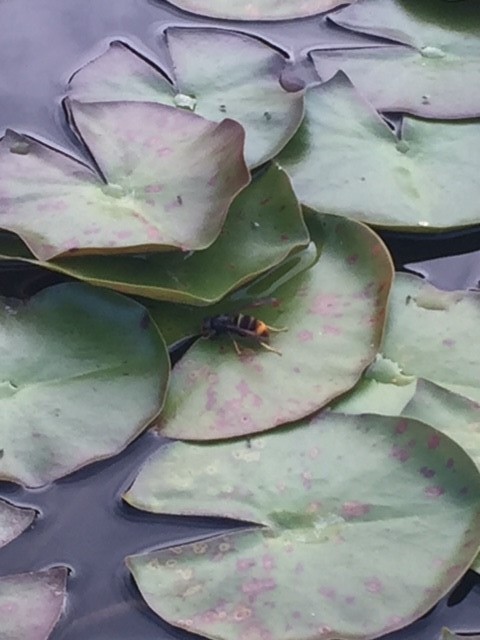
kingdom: Animalia
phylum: Arthropoda
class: Insecta
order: Hymenoptera
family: Vespidae
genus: Vespa
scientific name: Vespa velutina
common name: Asian hornet
